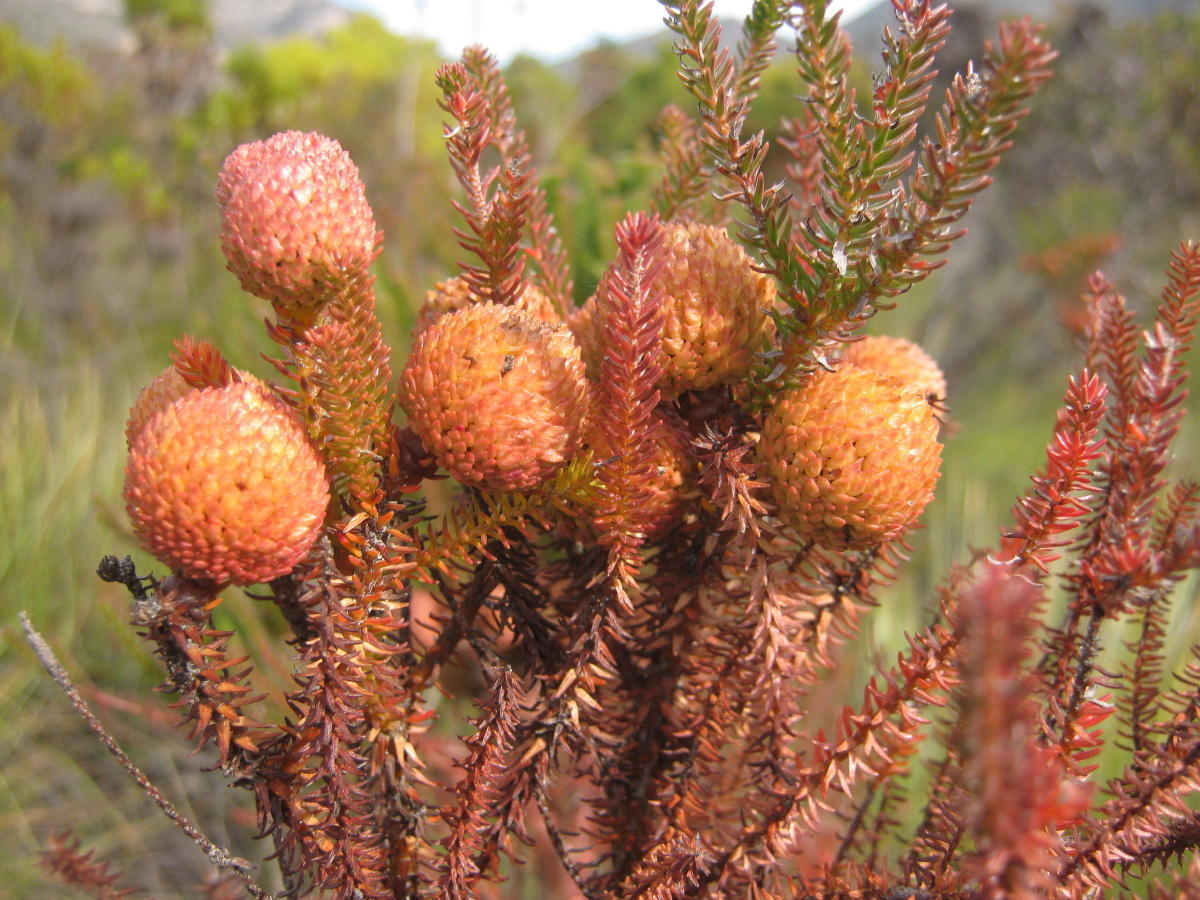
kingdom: Plantae
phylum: Tracheophyta
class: Magnoliopsida
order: Bruniales
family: Bruniaceae
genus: Berzelia
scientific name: Berzelia intermedia
